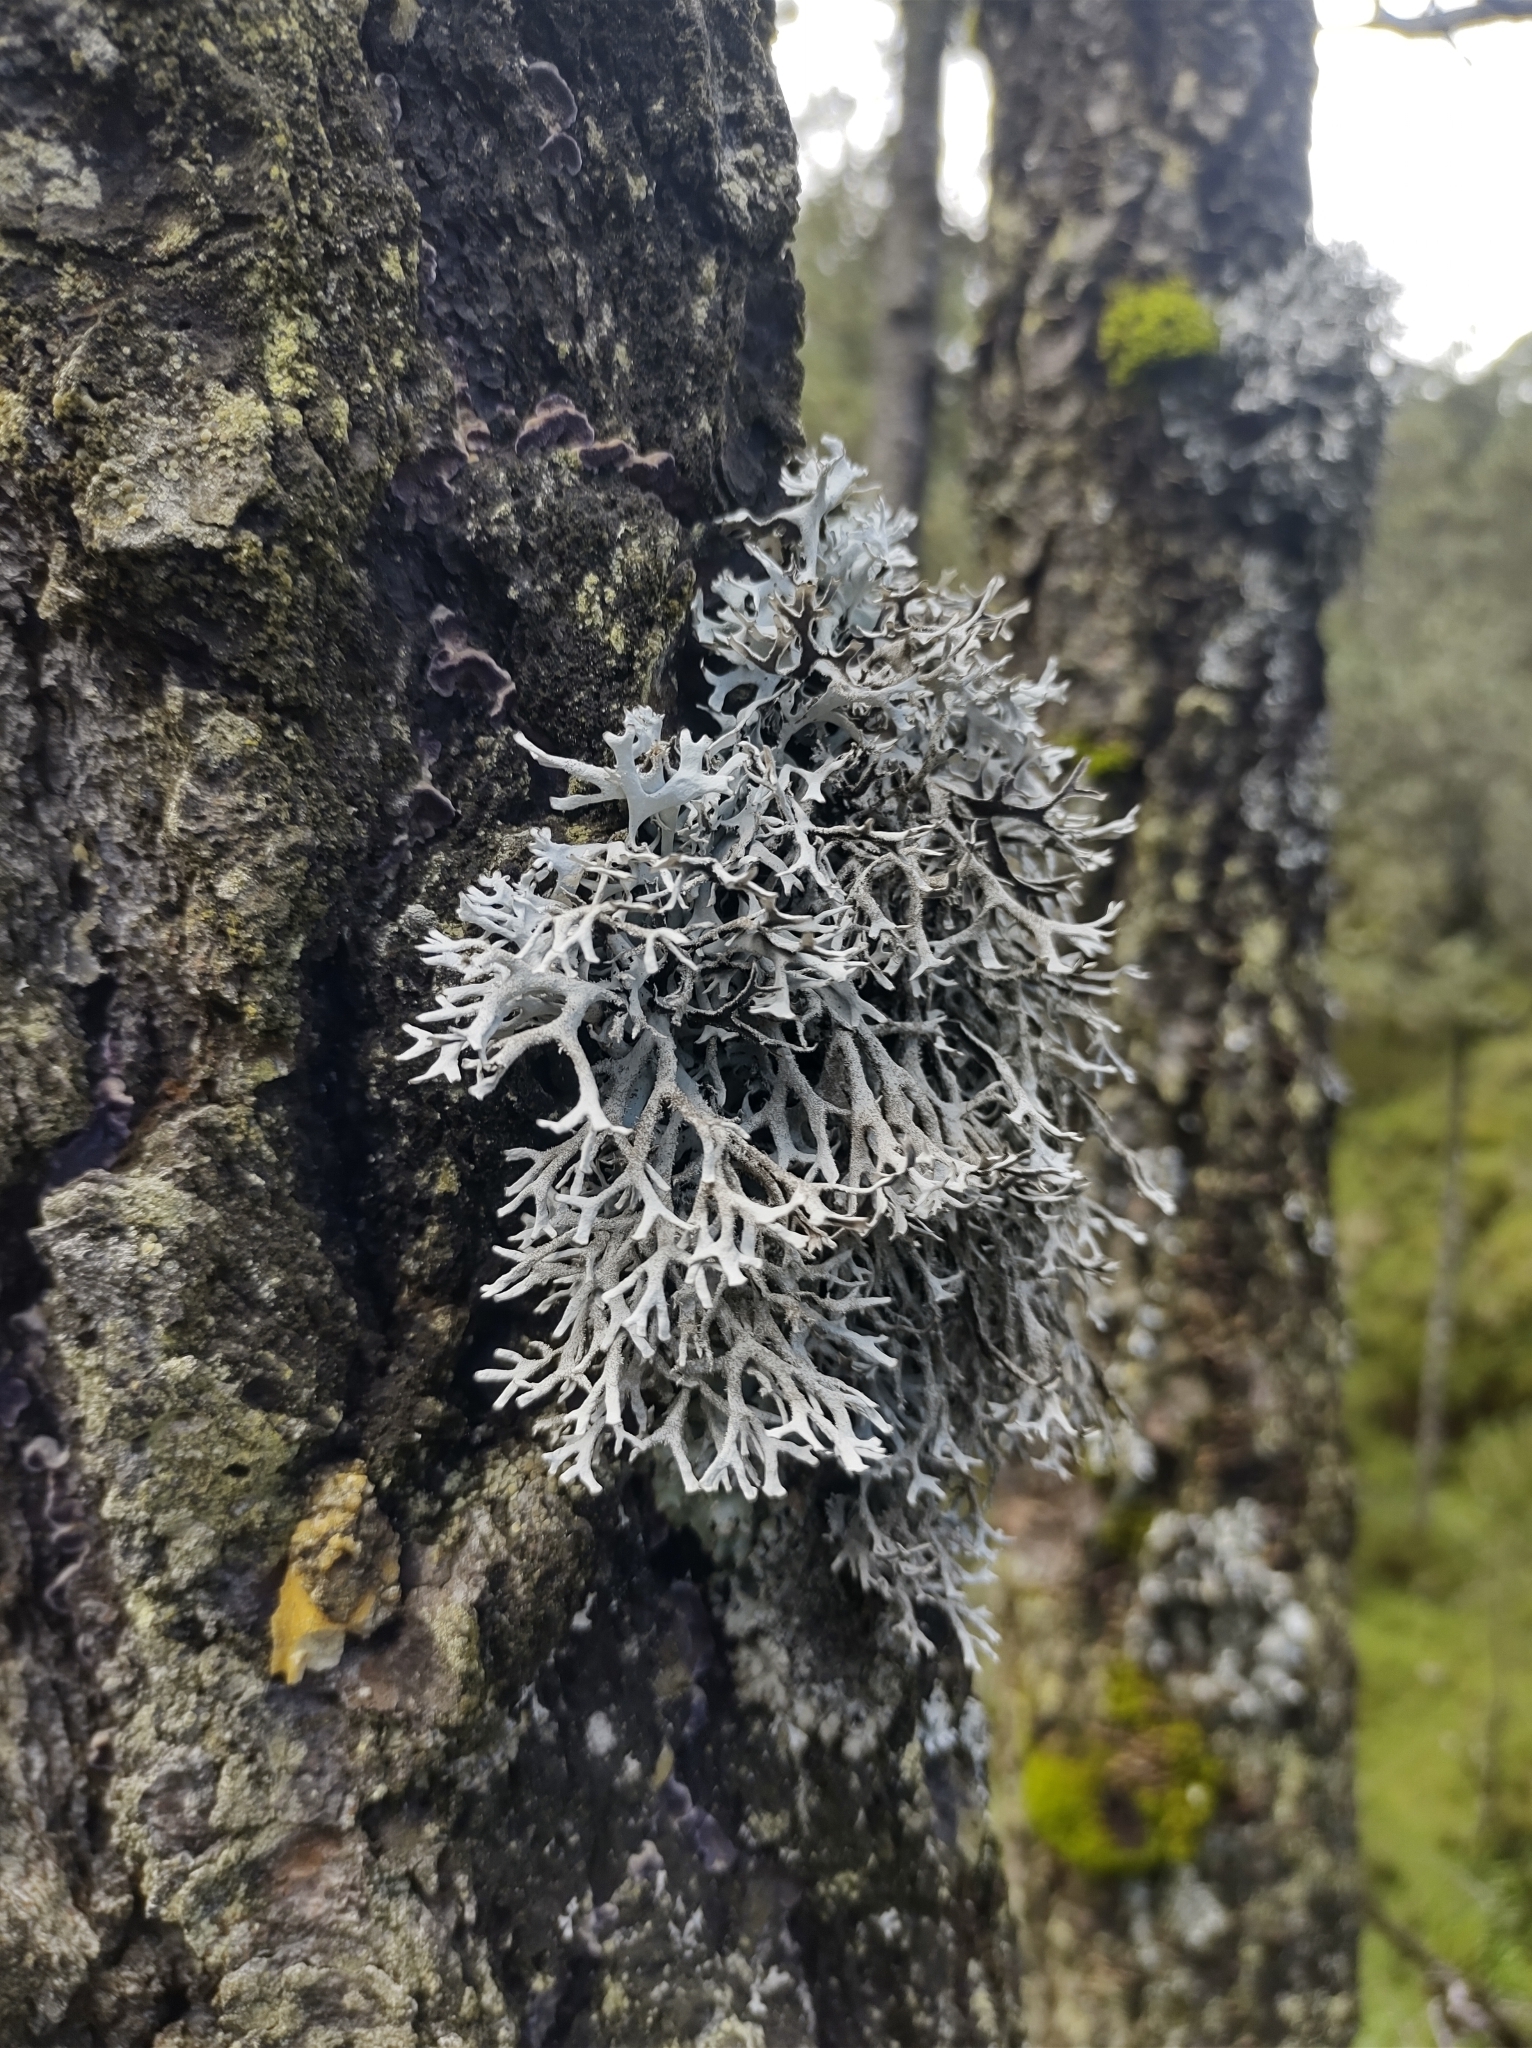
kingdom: Fungi
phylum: Ascomycota
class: Lecanoromycetes
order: Lecanorales
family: Parmeliaceae
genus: Pseudevernia
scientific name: Pseudevernia consocians
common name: Common antler lichen
